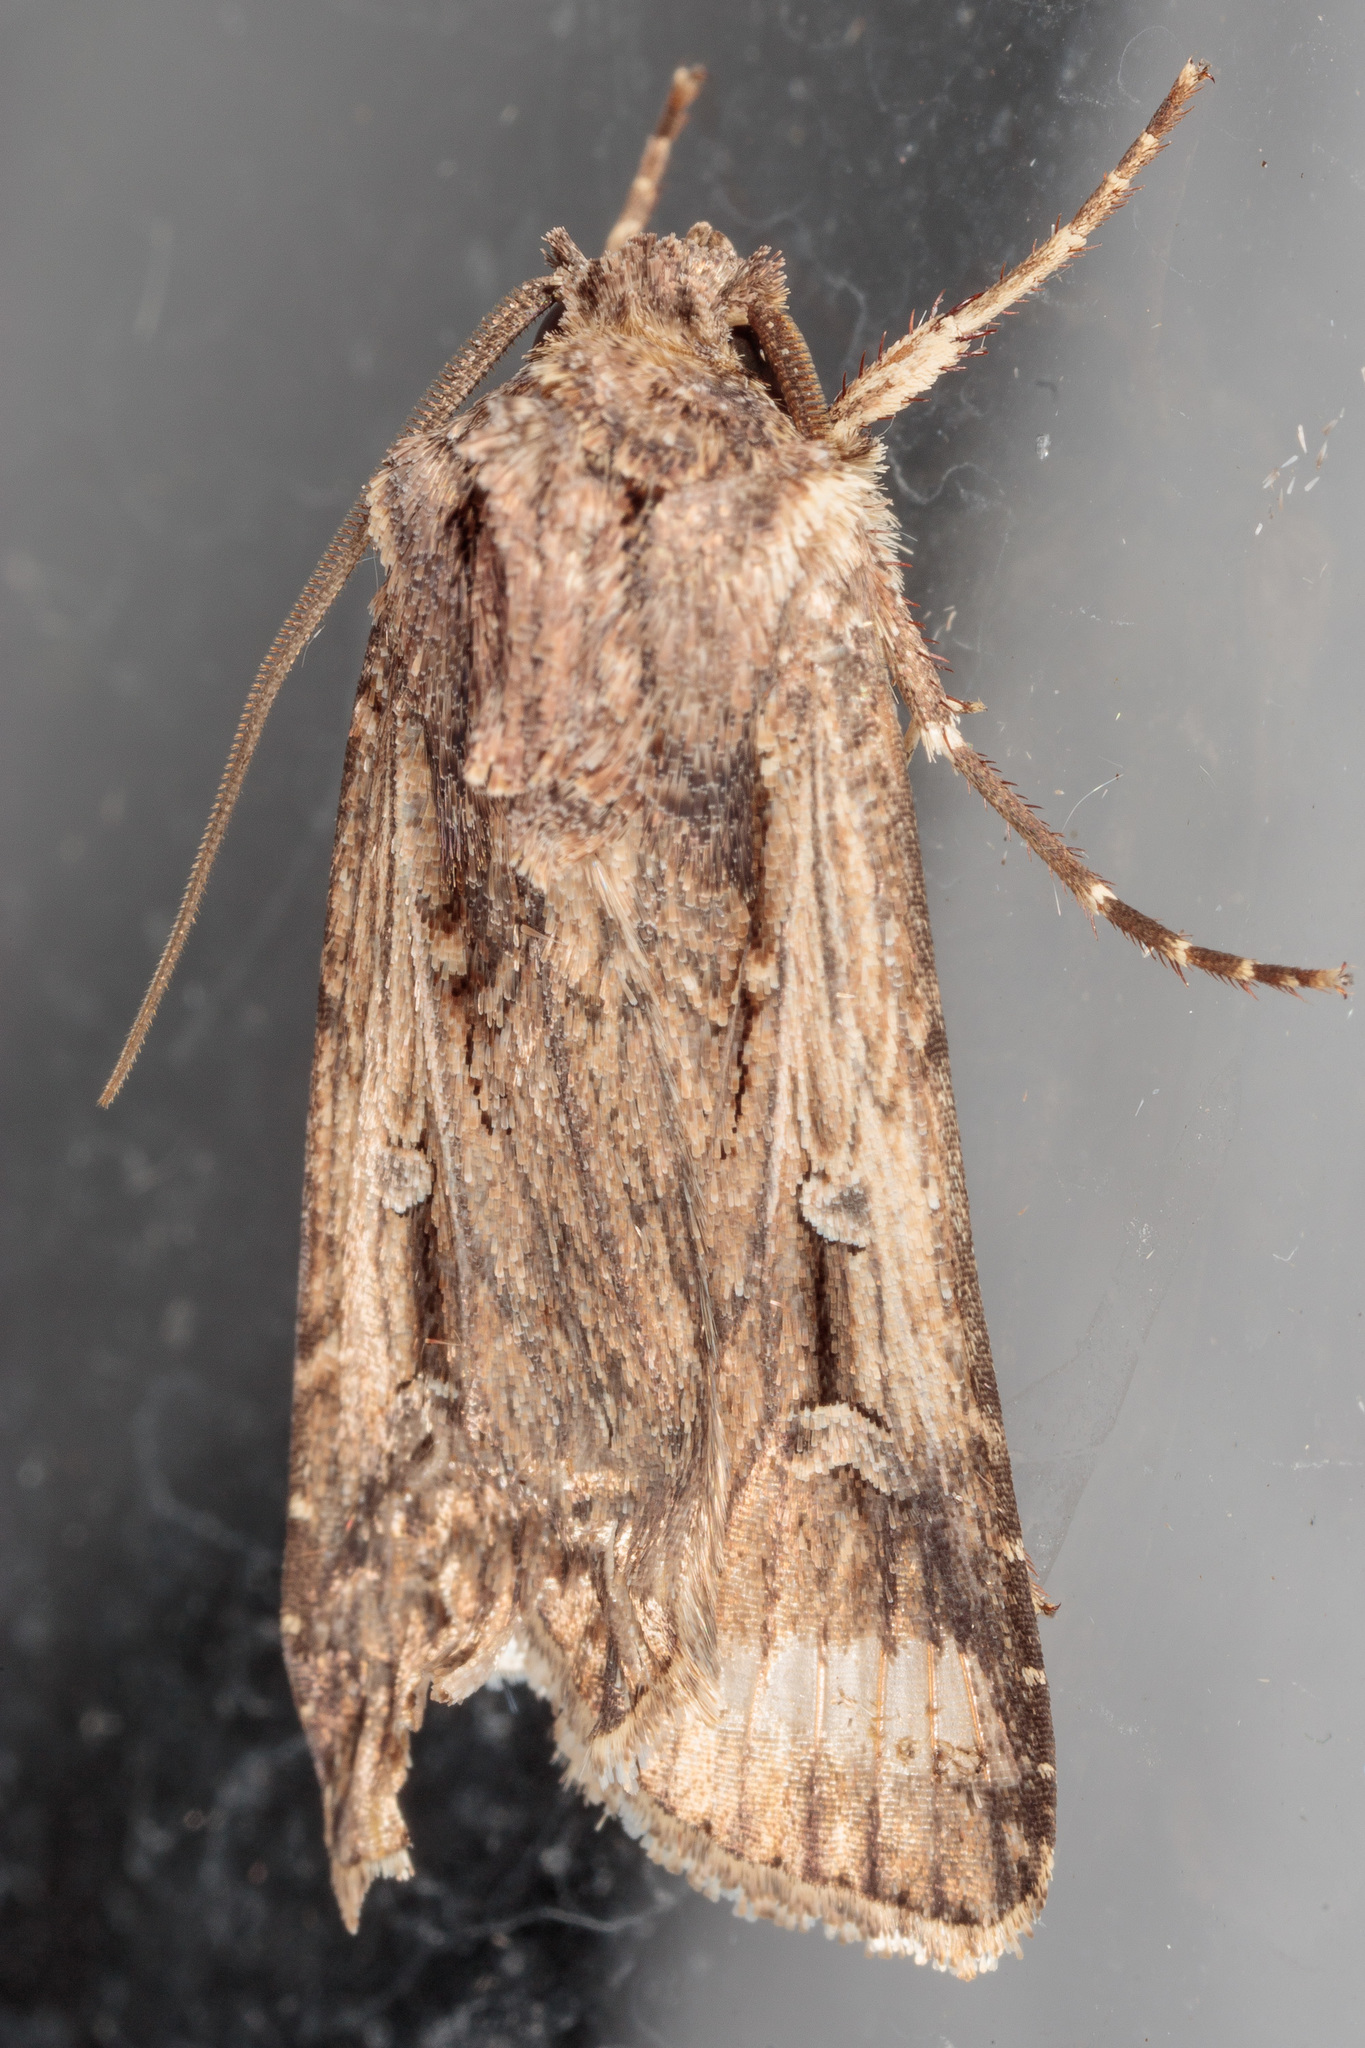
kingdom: Animalia
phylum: Arthropoda
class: Insecta
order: Lepidoptera
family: Noctuidae
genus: Feltia
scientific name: Feltia subterranea
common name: Granulate cutworm
